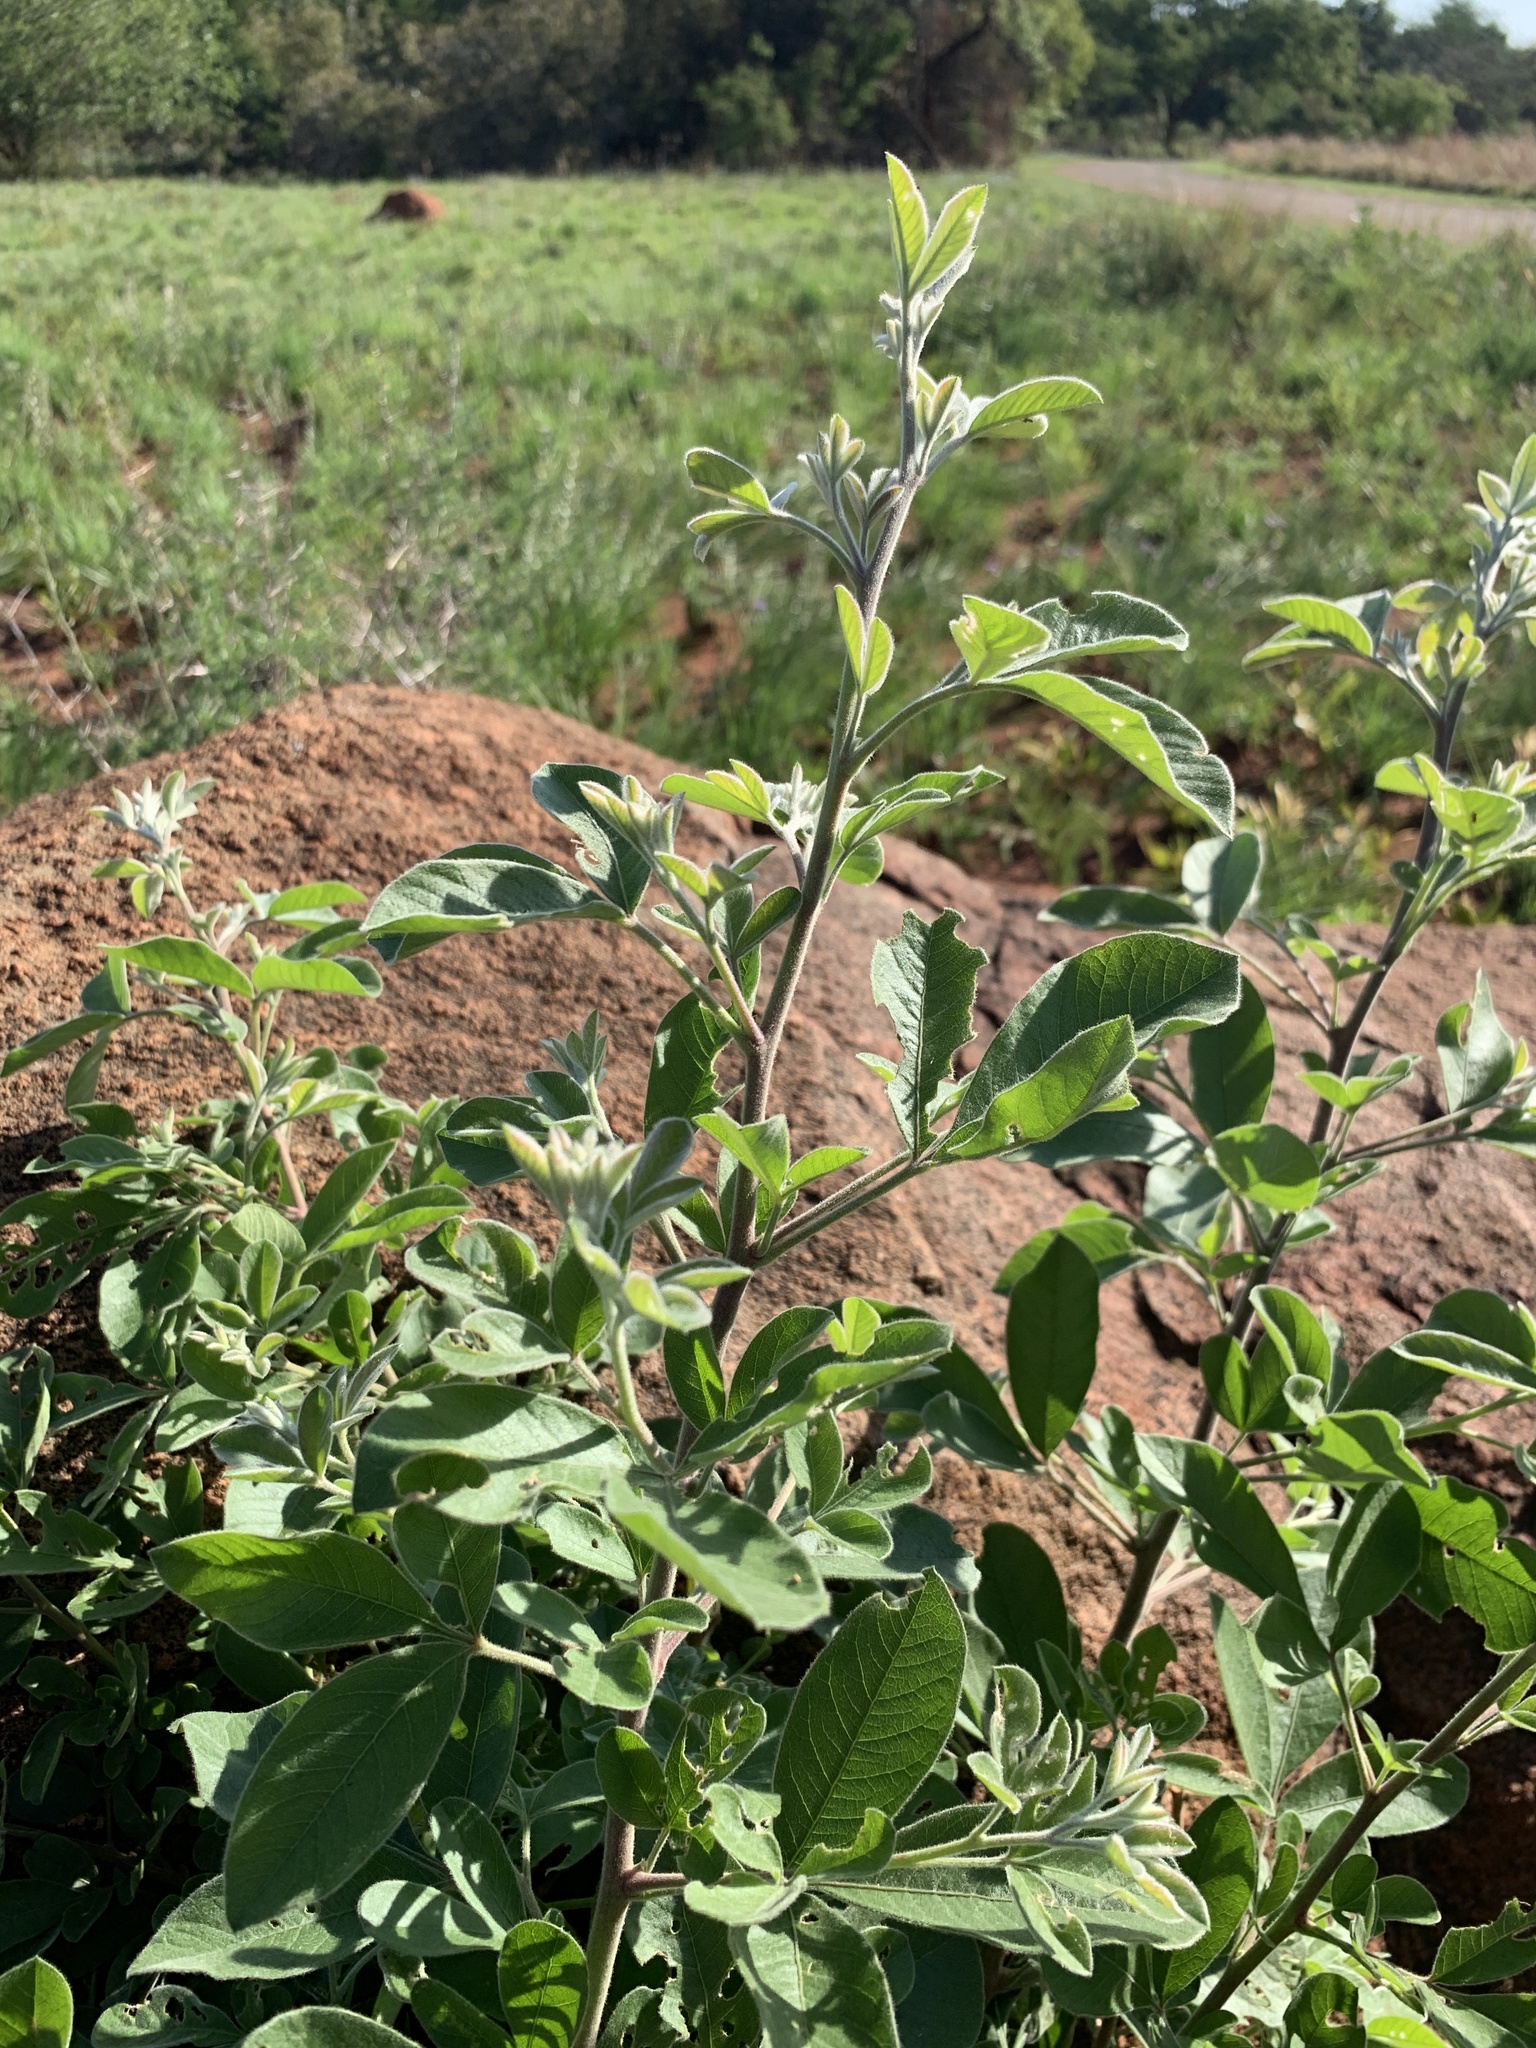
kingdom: Plantae
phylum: Tracheophyta
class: Magnoliopsida
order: Sapindales
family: Anacardiaceae
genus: Searsia
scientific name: Searsia pyroides
